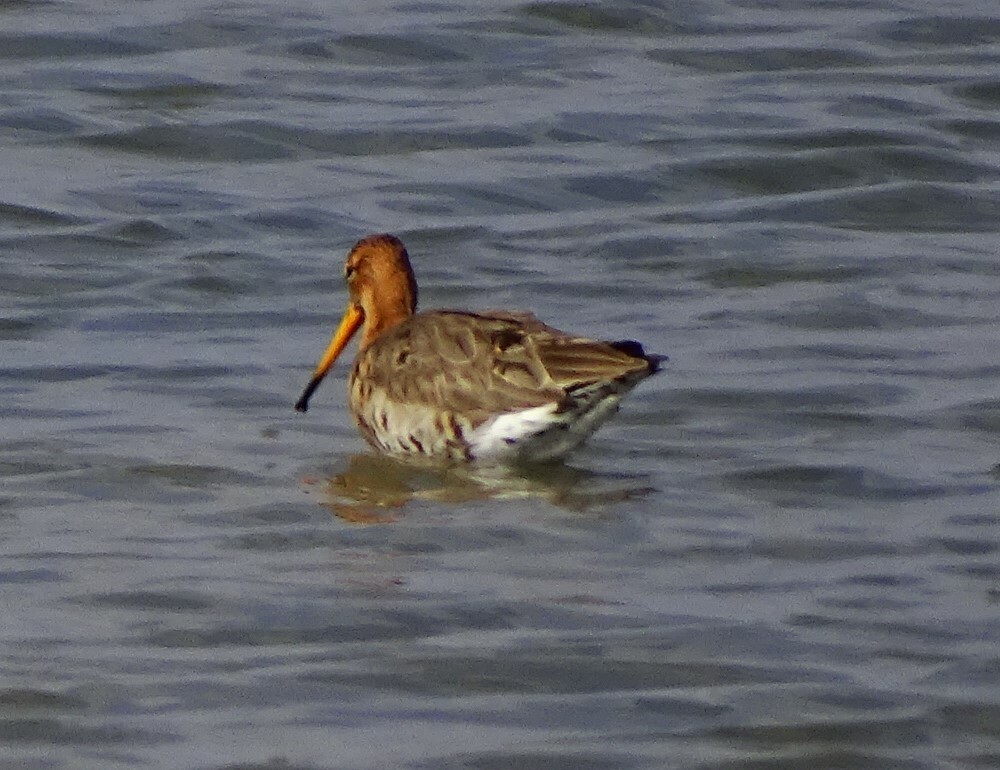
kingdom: Animalia
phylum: Chordata
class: Aves
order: Charadriiformes
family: Scolopacidae
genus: Limosa
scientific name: Limosa limosa
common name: Black-tailed godwit
